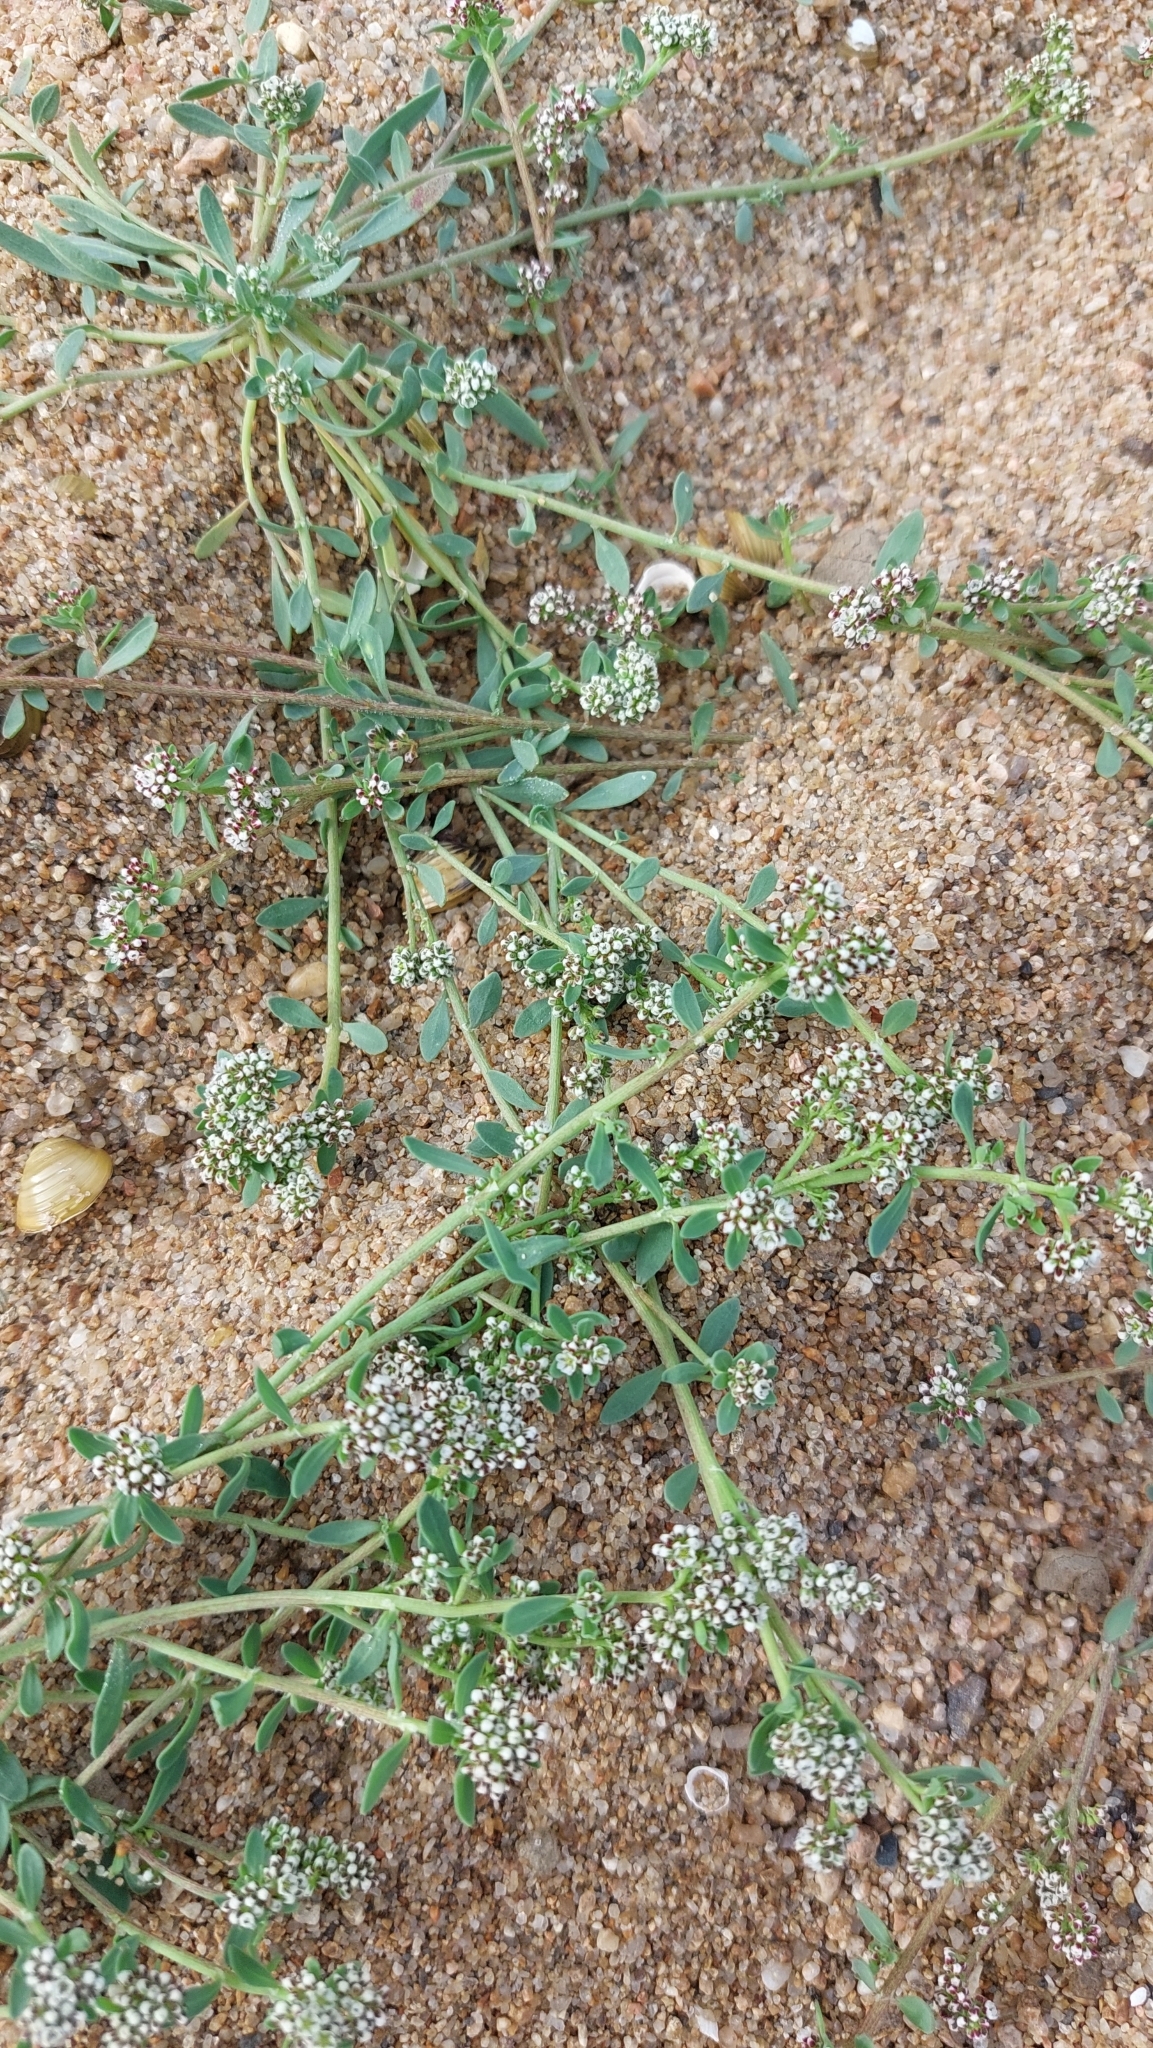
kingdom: Plantae
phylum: Tracheophyta
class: Magnoliopsida
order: Caryophyllales
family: Caryophyllaceae
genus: Corrigiola
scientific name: Corrigiola litoralis
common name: Strapwort
